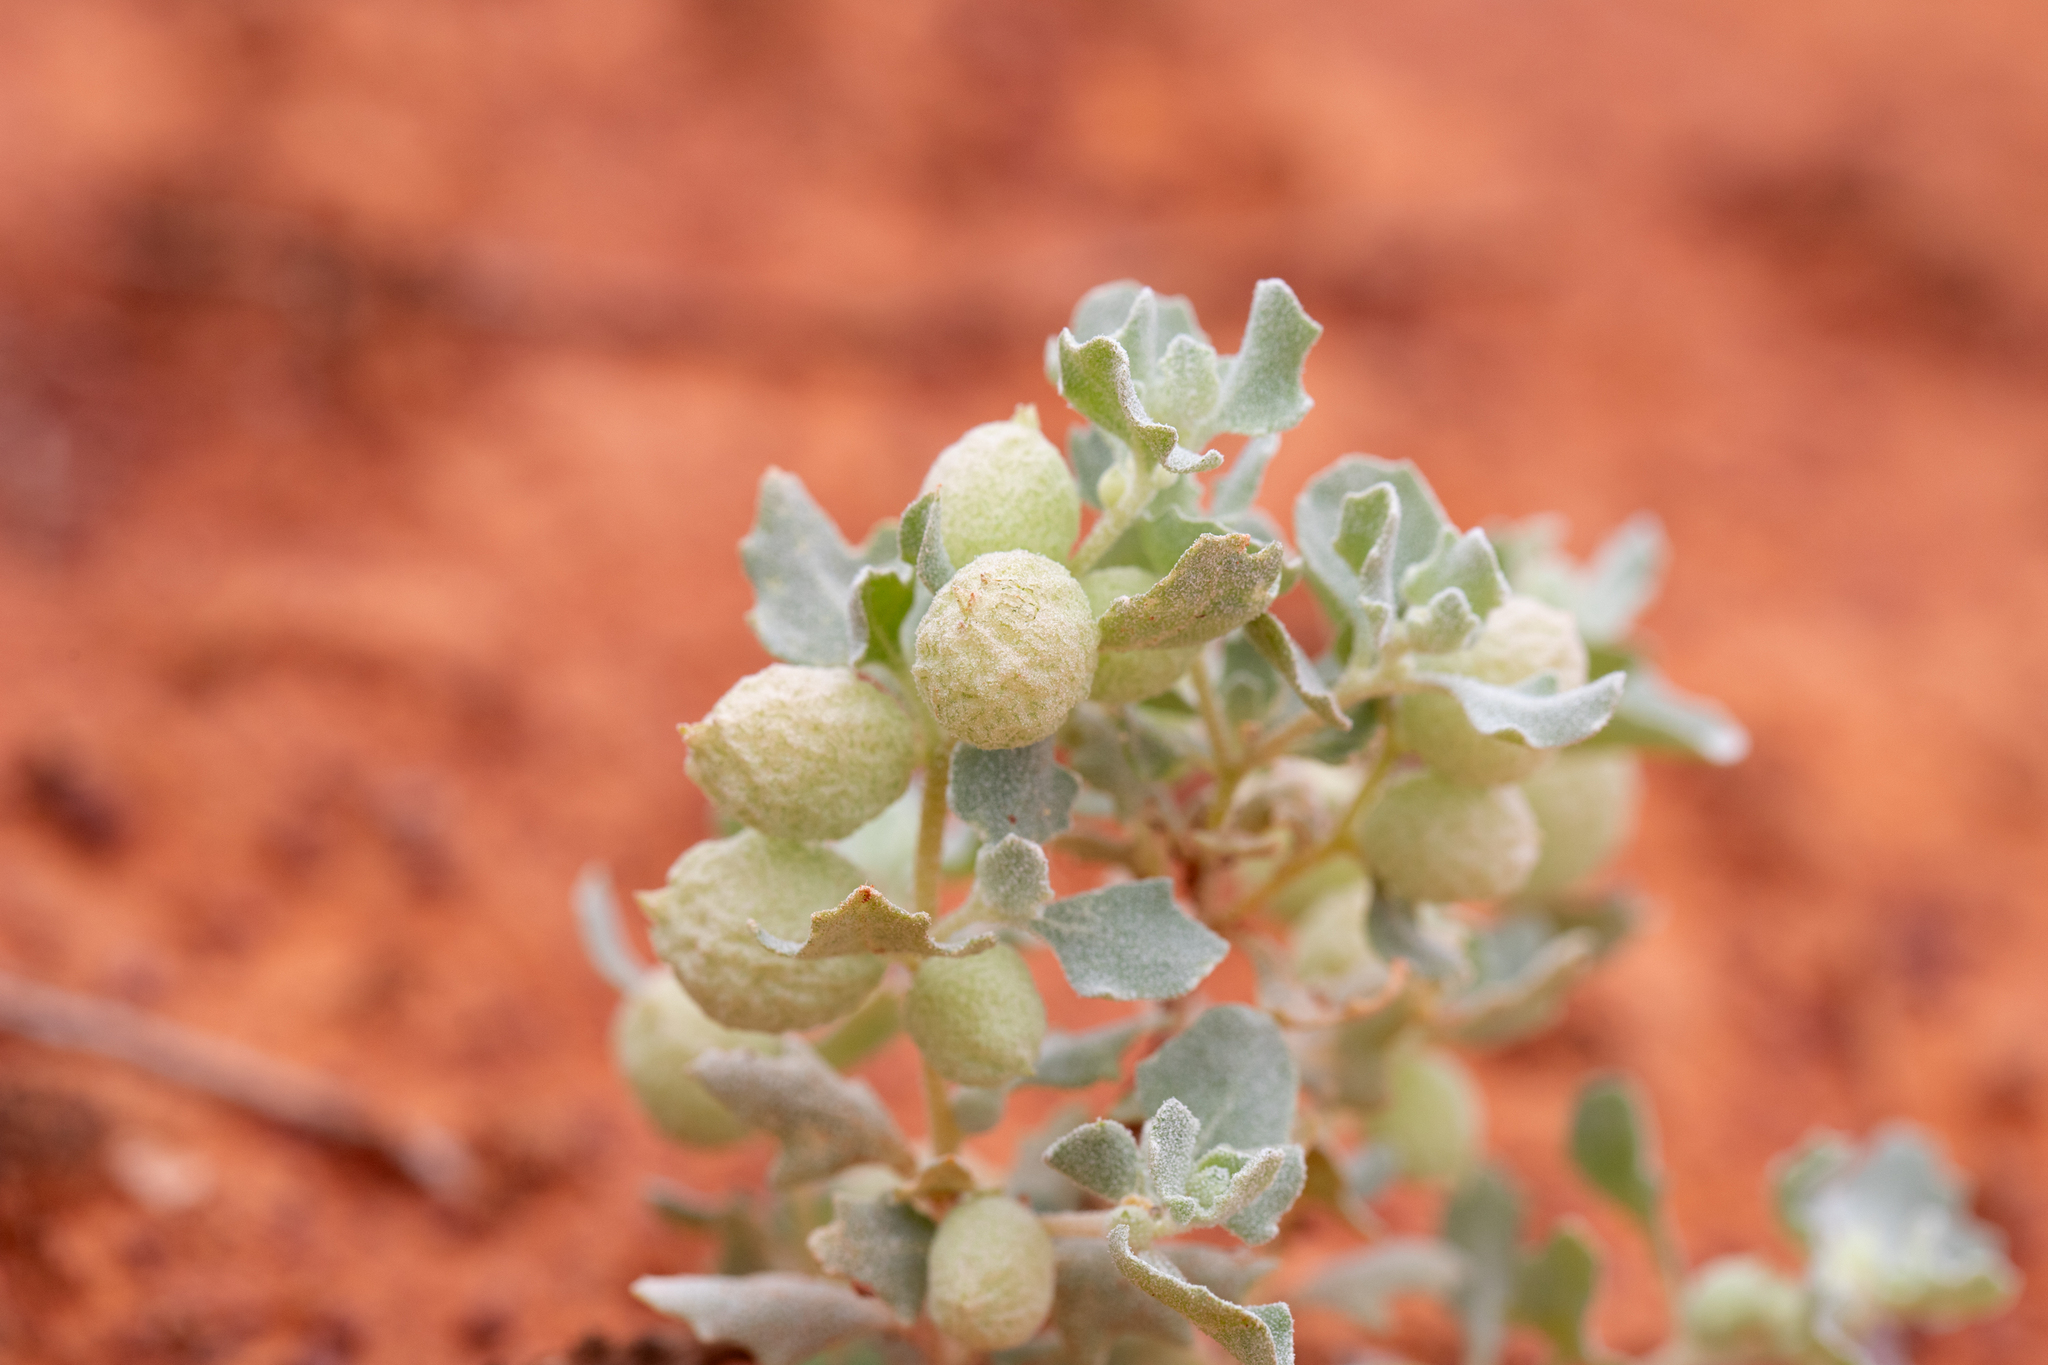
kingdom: Plantae
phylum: Tracheophyta
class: Magnoliopsida
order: Caryophyllales
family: Amaranthaceae
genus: Atriplex
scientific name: Atriplex holocarpa
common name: Pop saltbush
